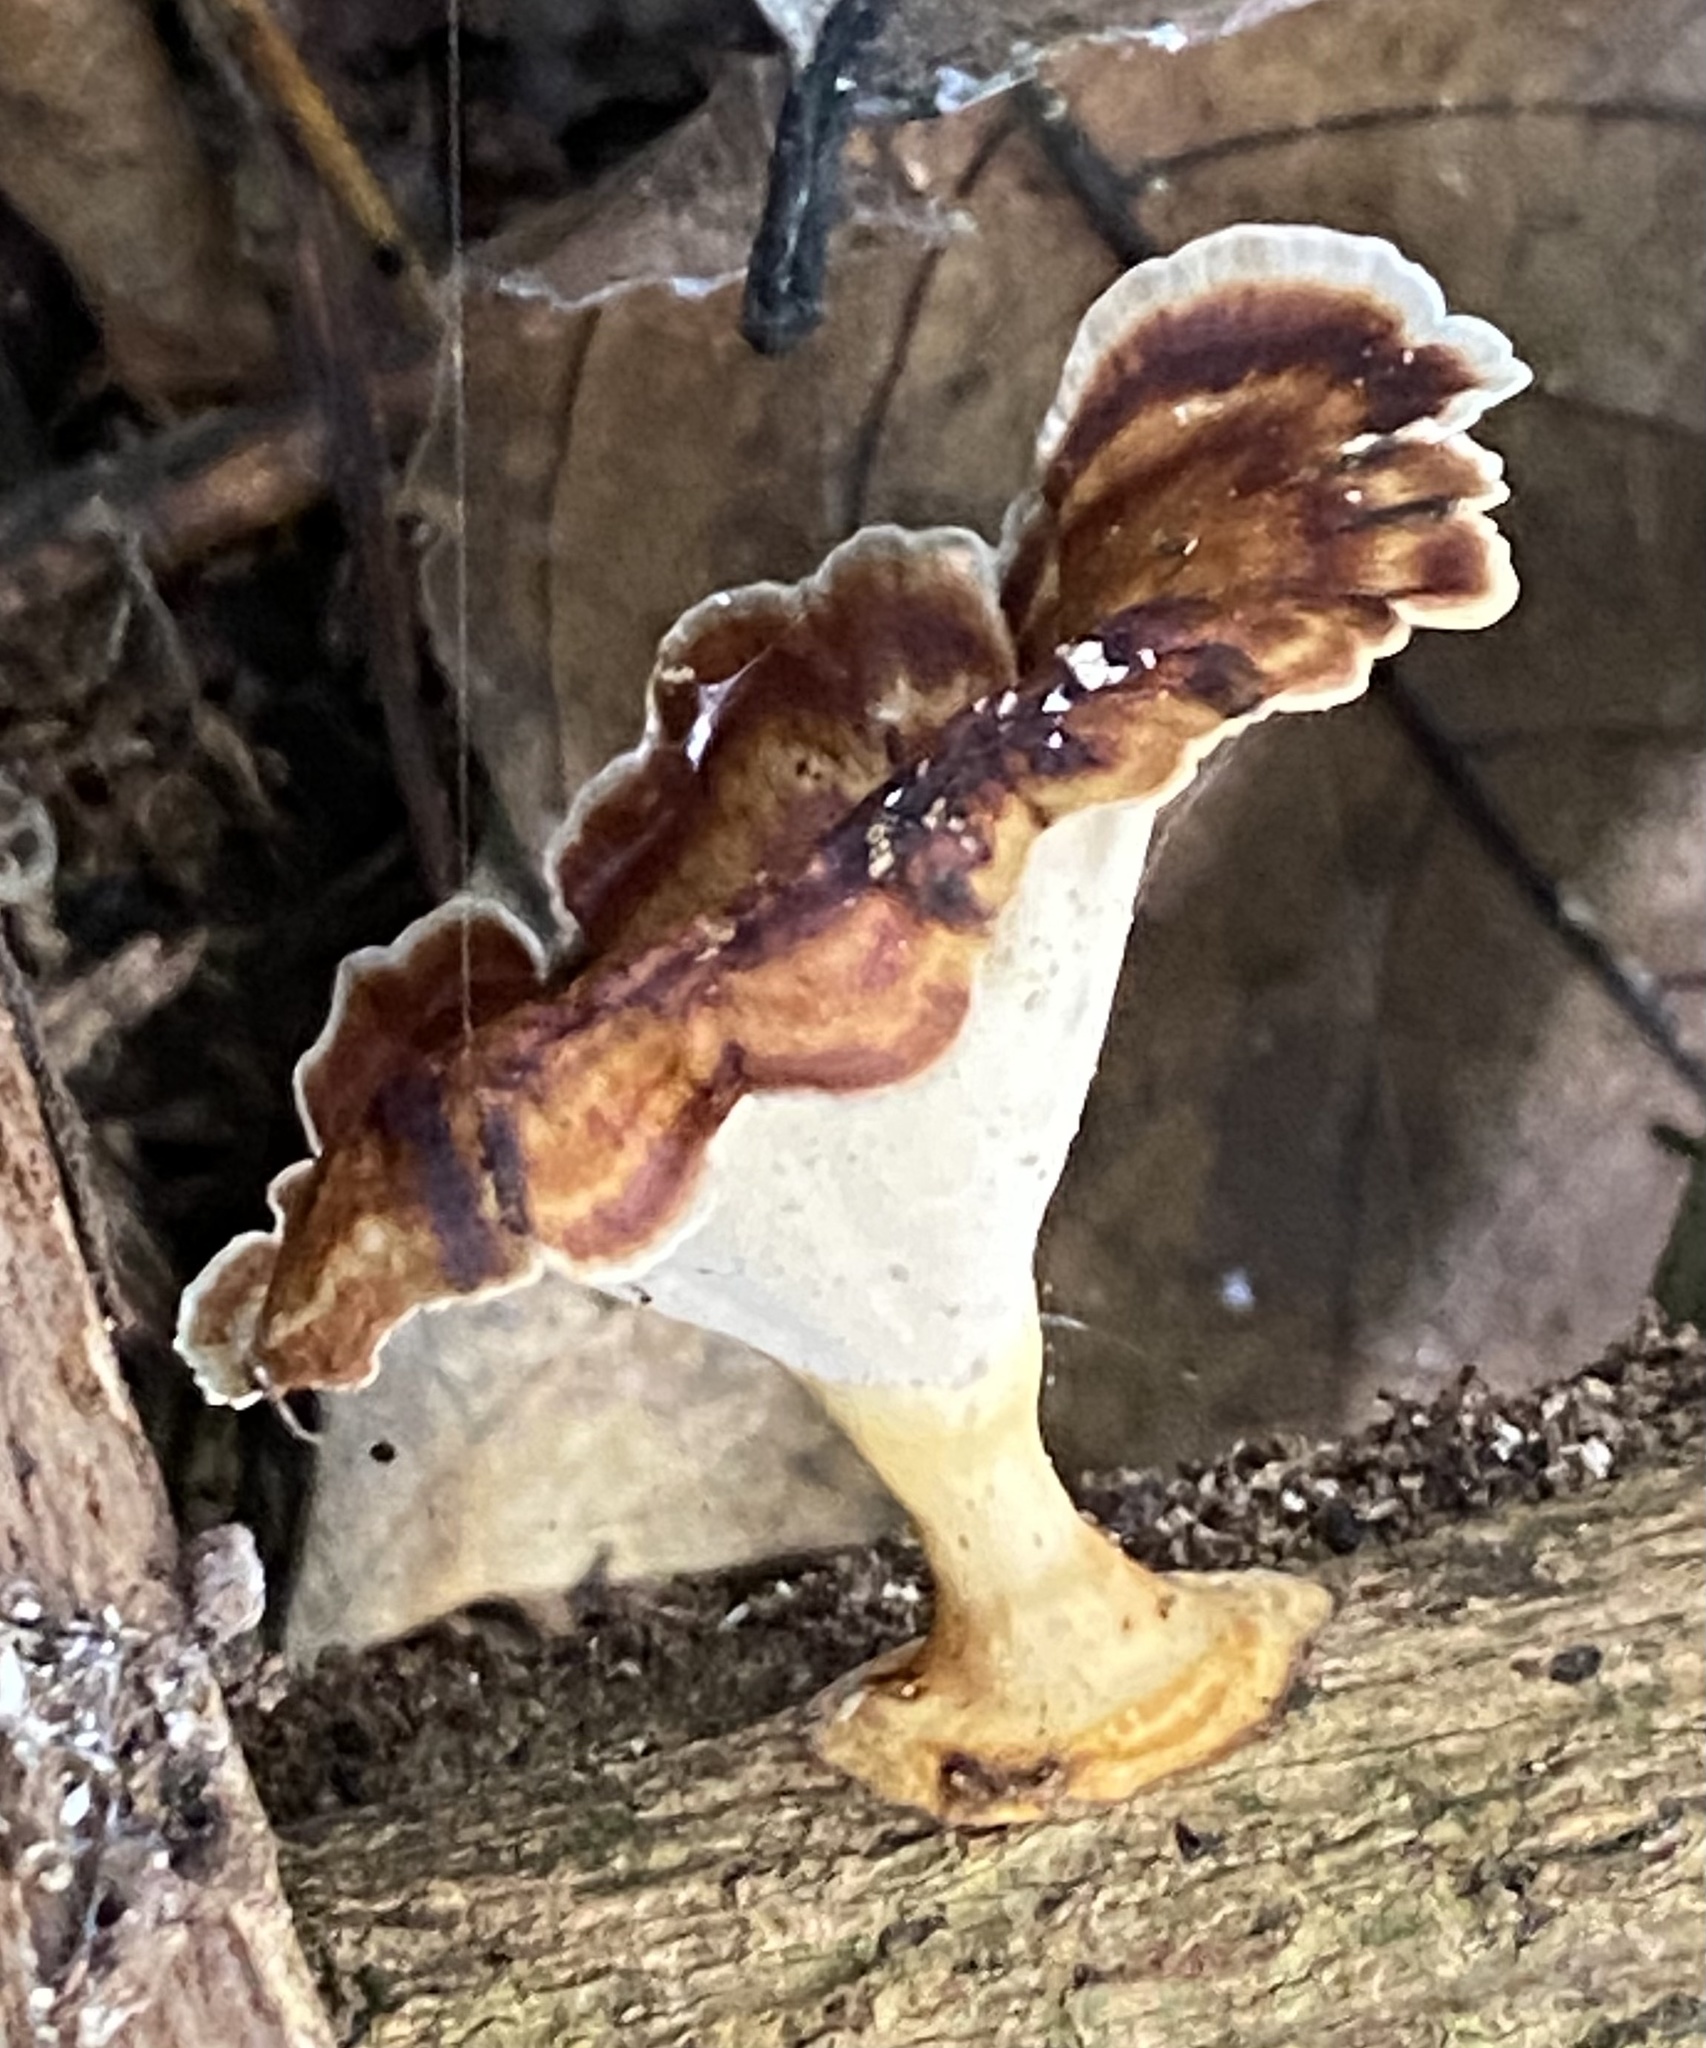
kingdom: Fungi
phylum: Basidiomycota
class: Agaricomycetes
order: Polyporales
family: Polyporaceae
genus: Microporus
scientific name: Microporus xanthopus
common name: Yellow-stemmed micropore
